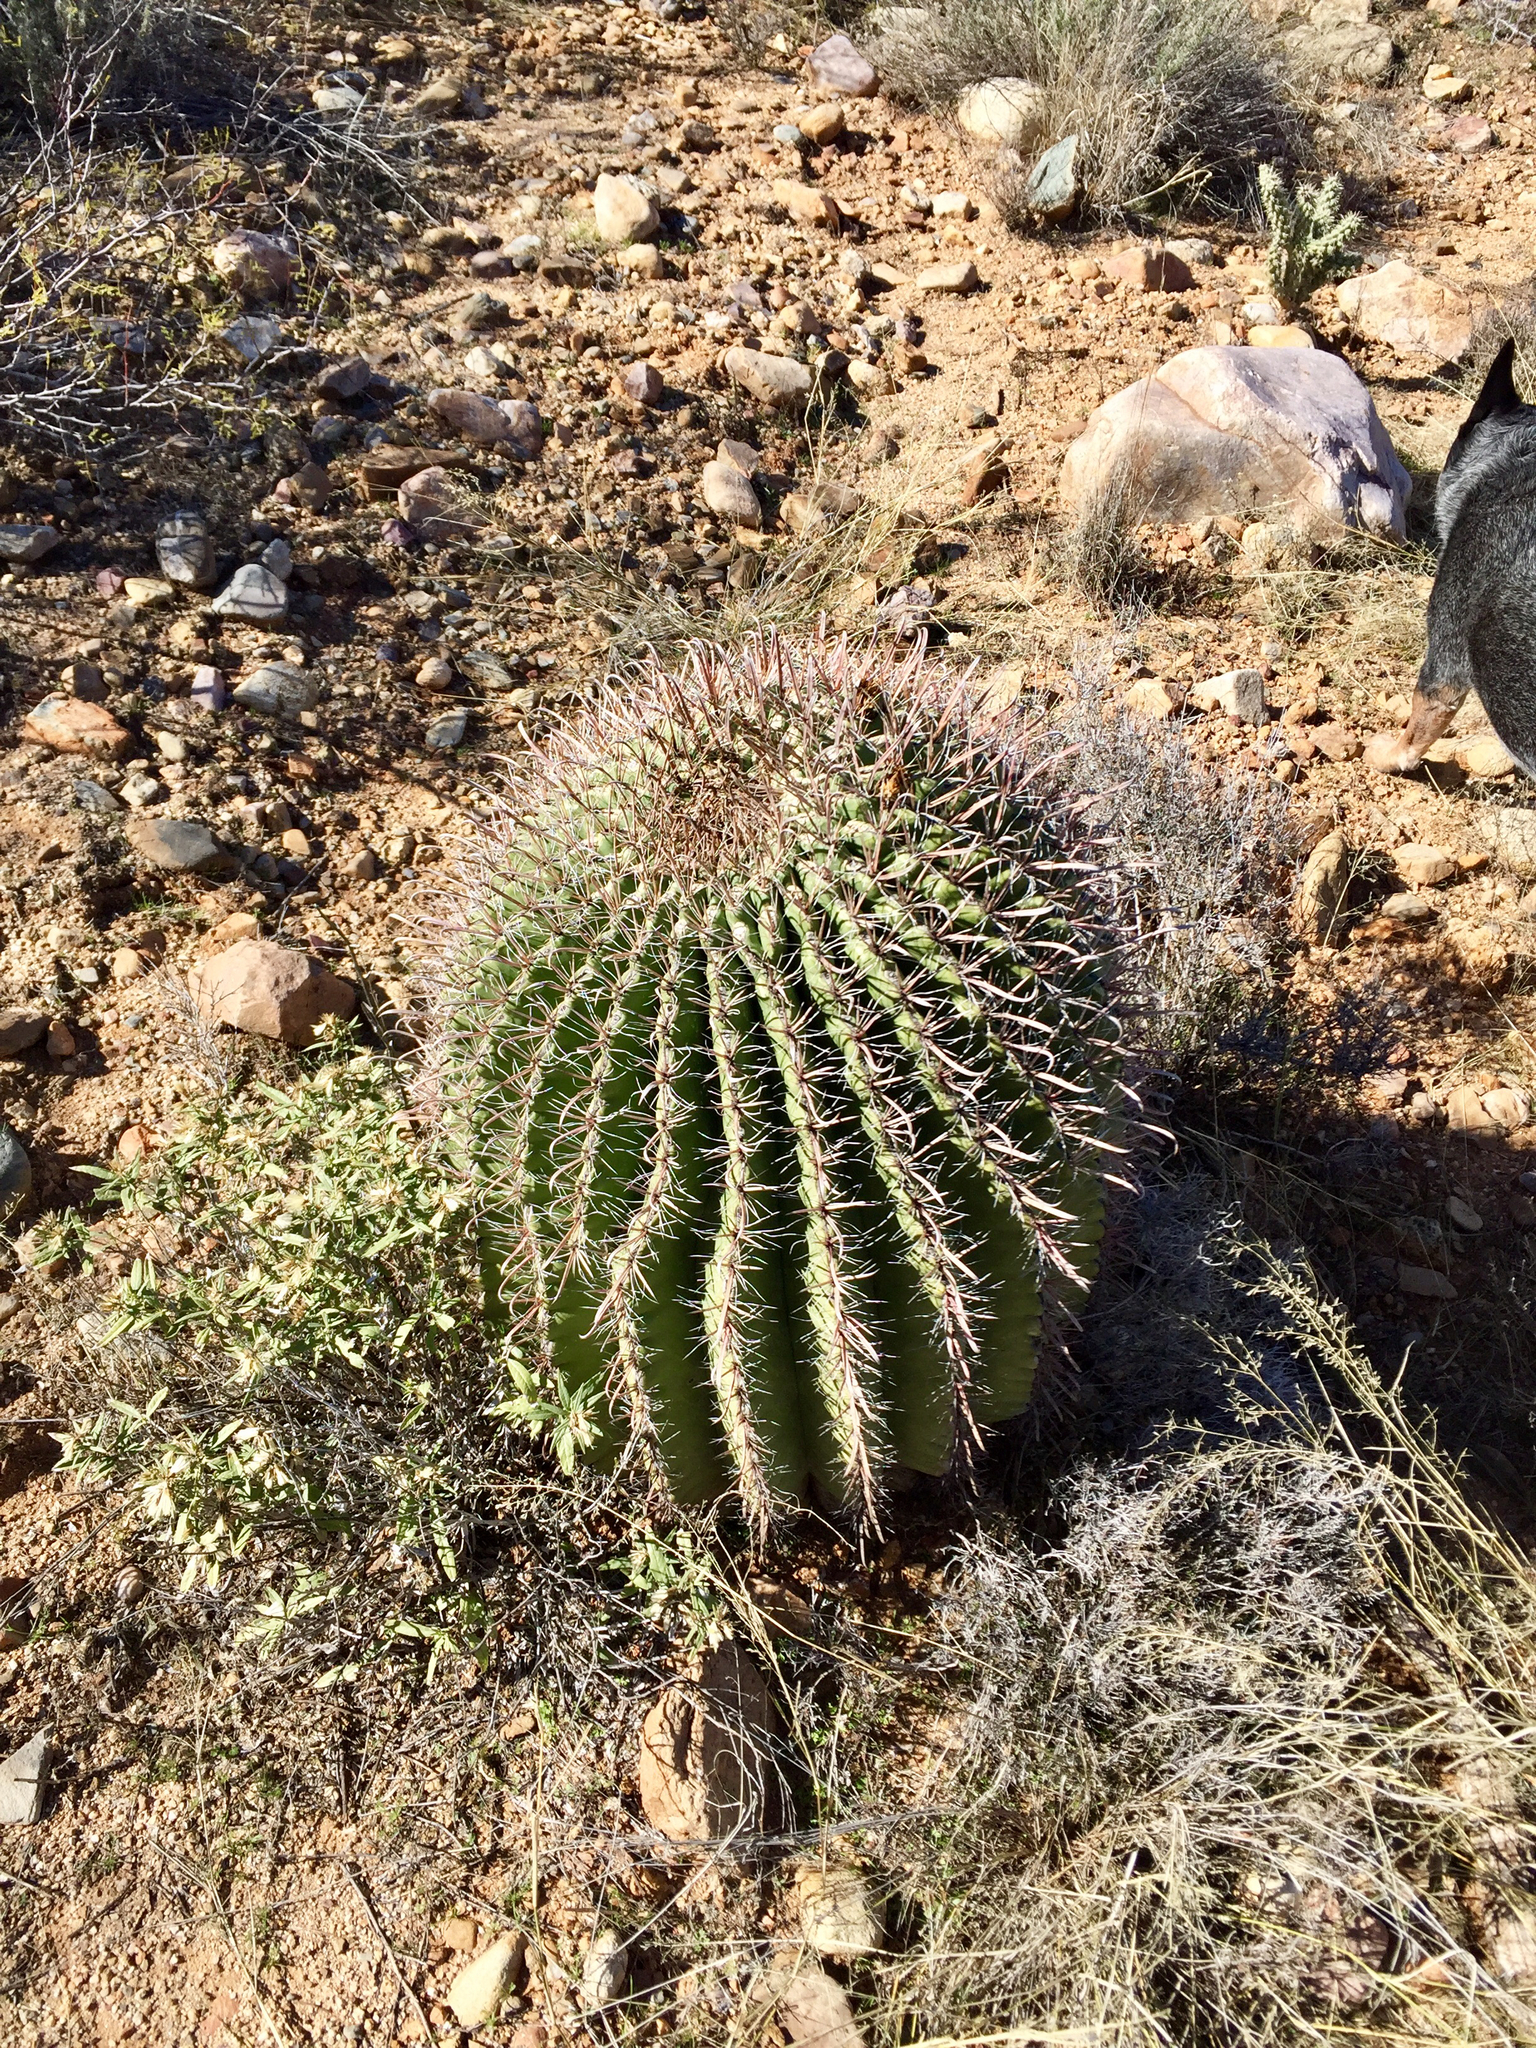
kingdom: Plantae
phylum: Tracheophyta
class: Magnoliopsida
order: Caryophyllales
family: Cactaceae
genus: Ferocactus
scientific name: Ferocactus wislizeni
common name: Candy barrel cactus
